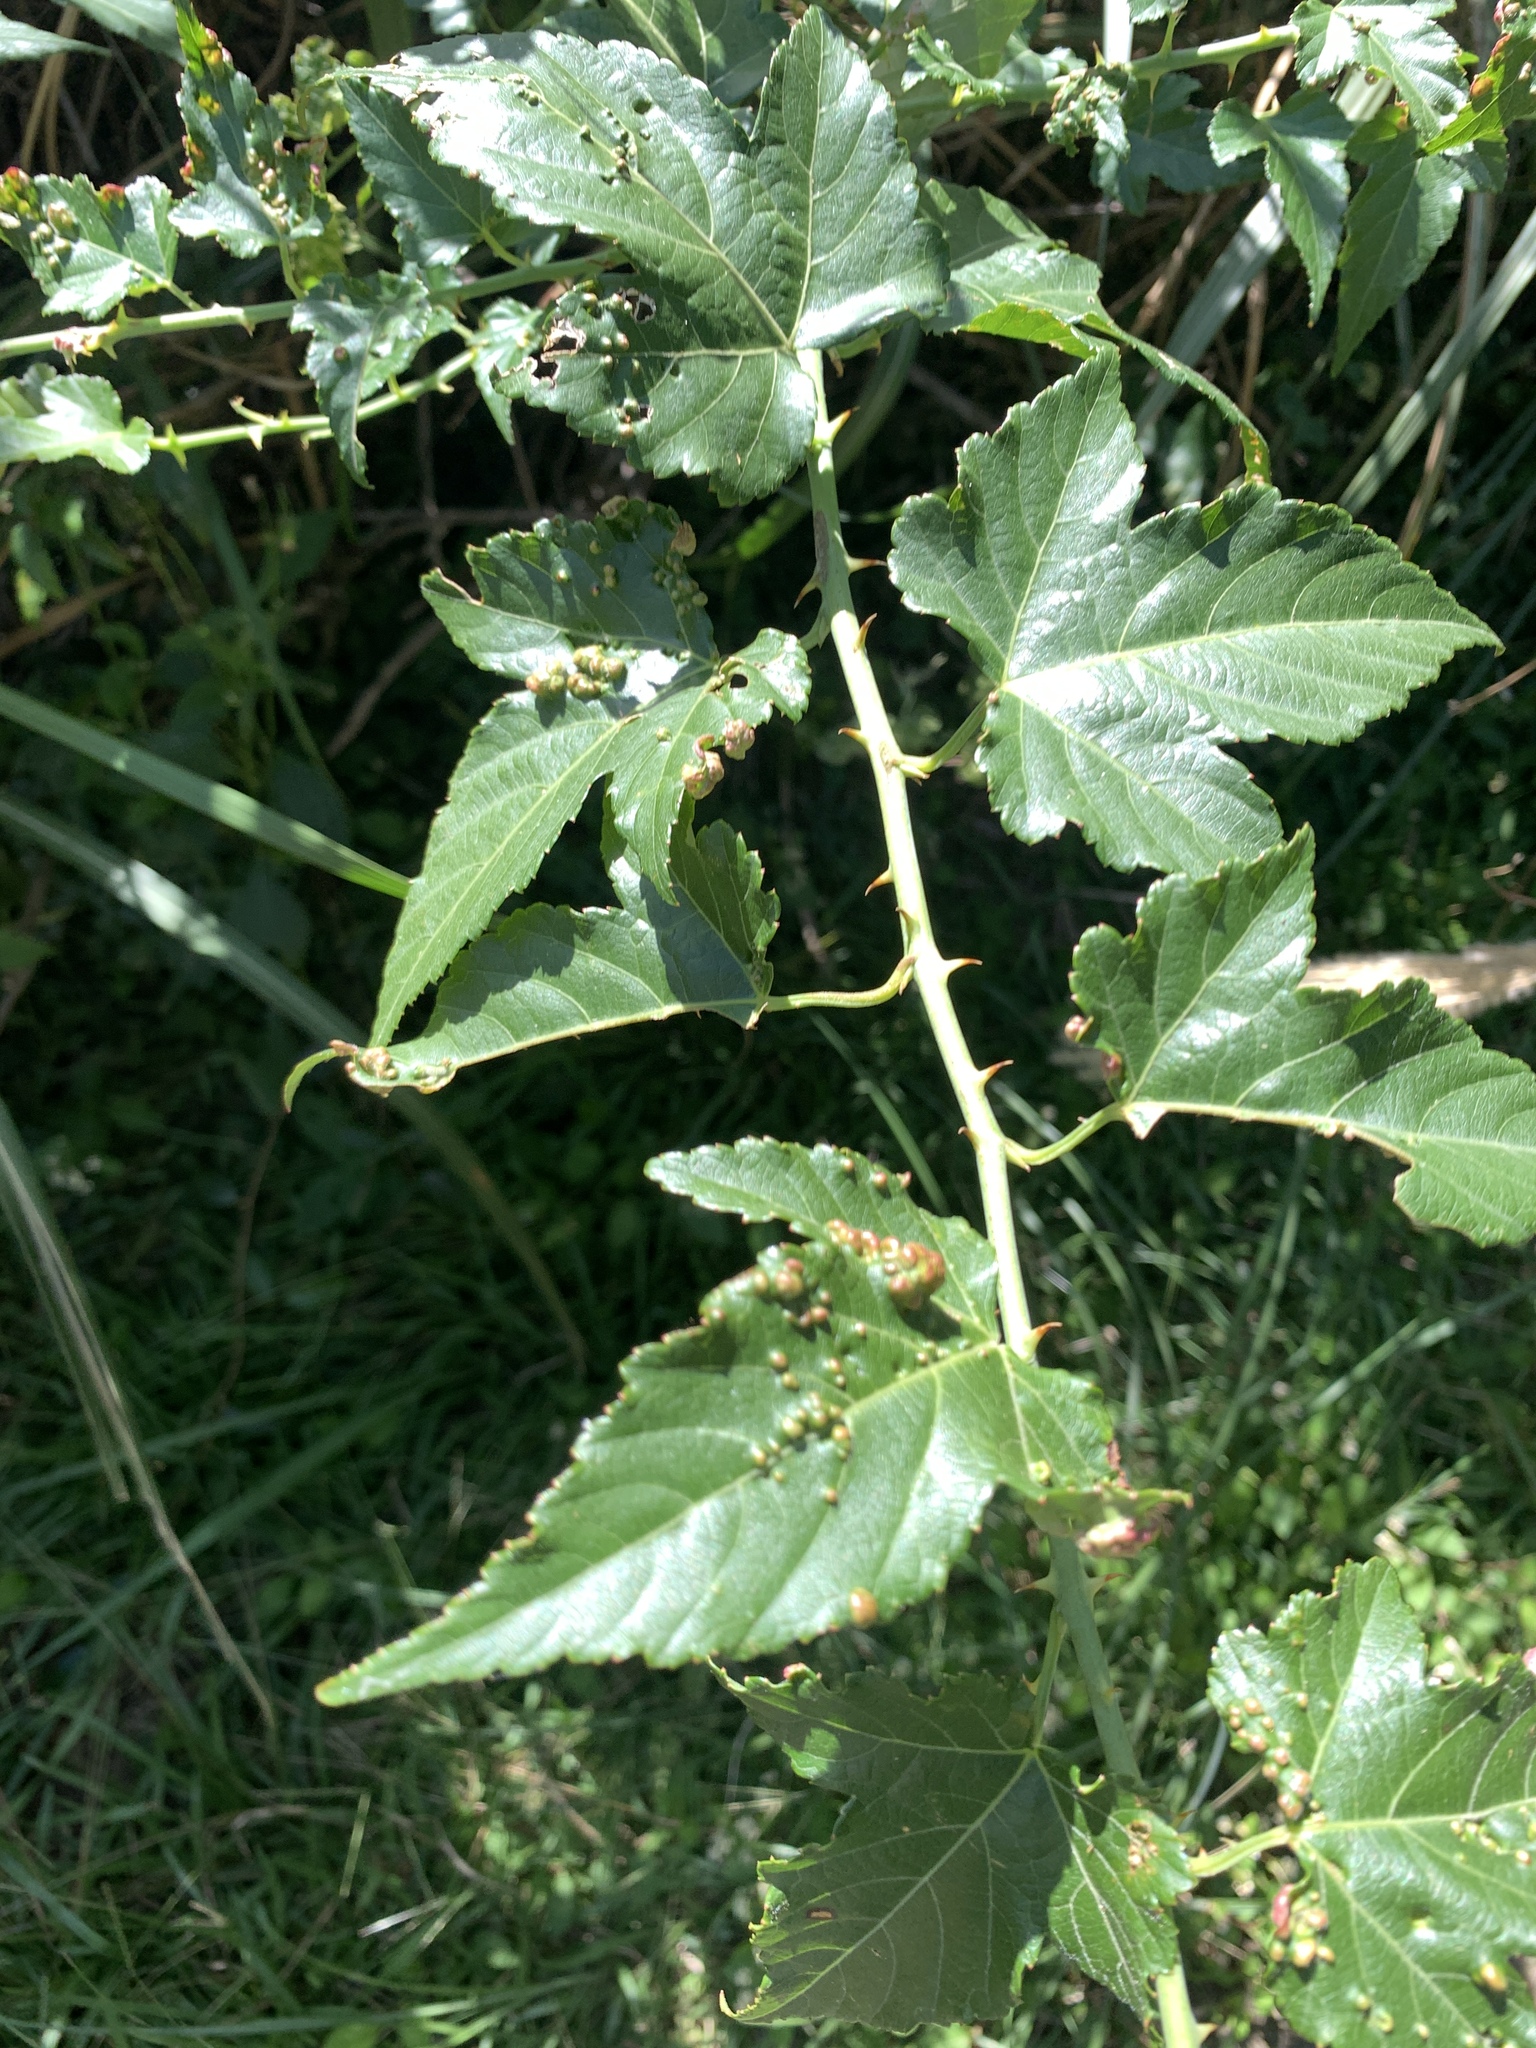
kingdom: Plantae
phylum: Tracheophyta
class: Magnoliopsida
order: Rosales
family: Rosaceae
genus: Rubus
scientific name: Rubus corchorifolius
